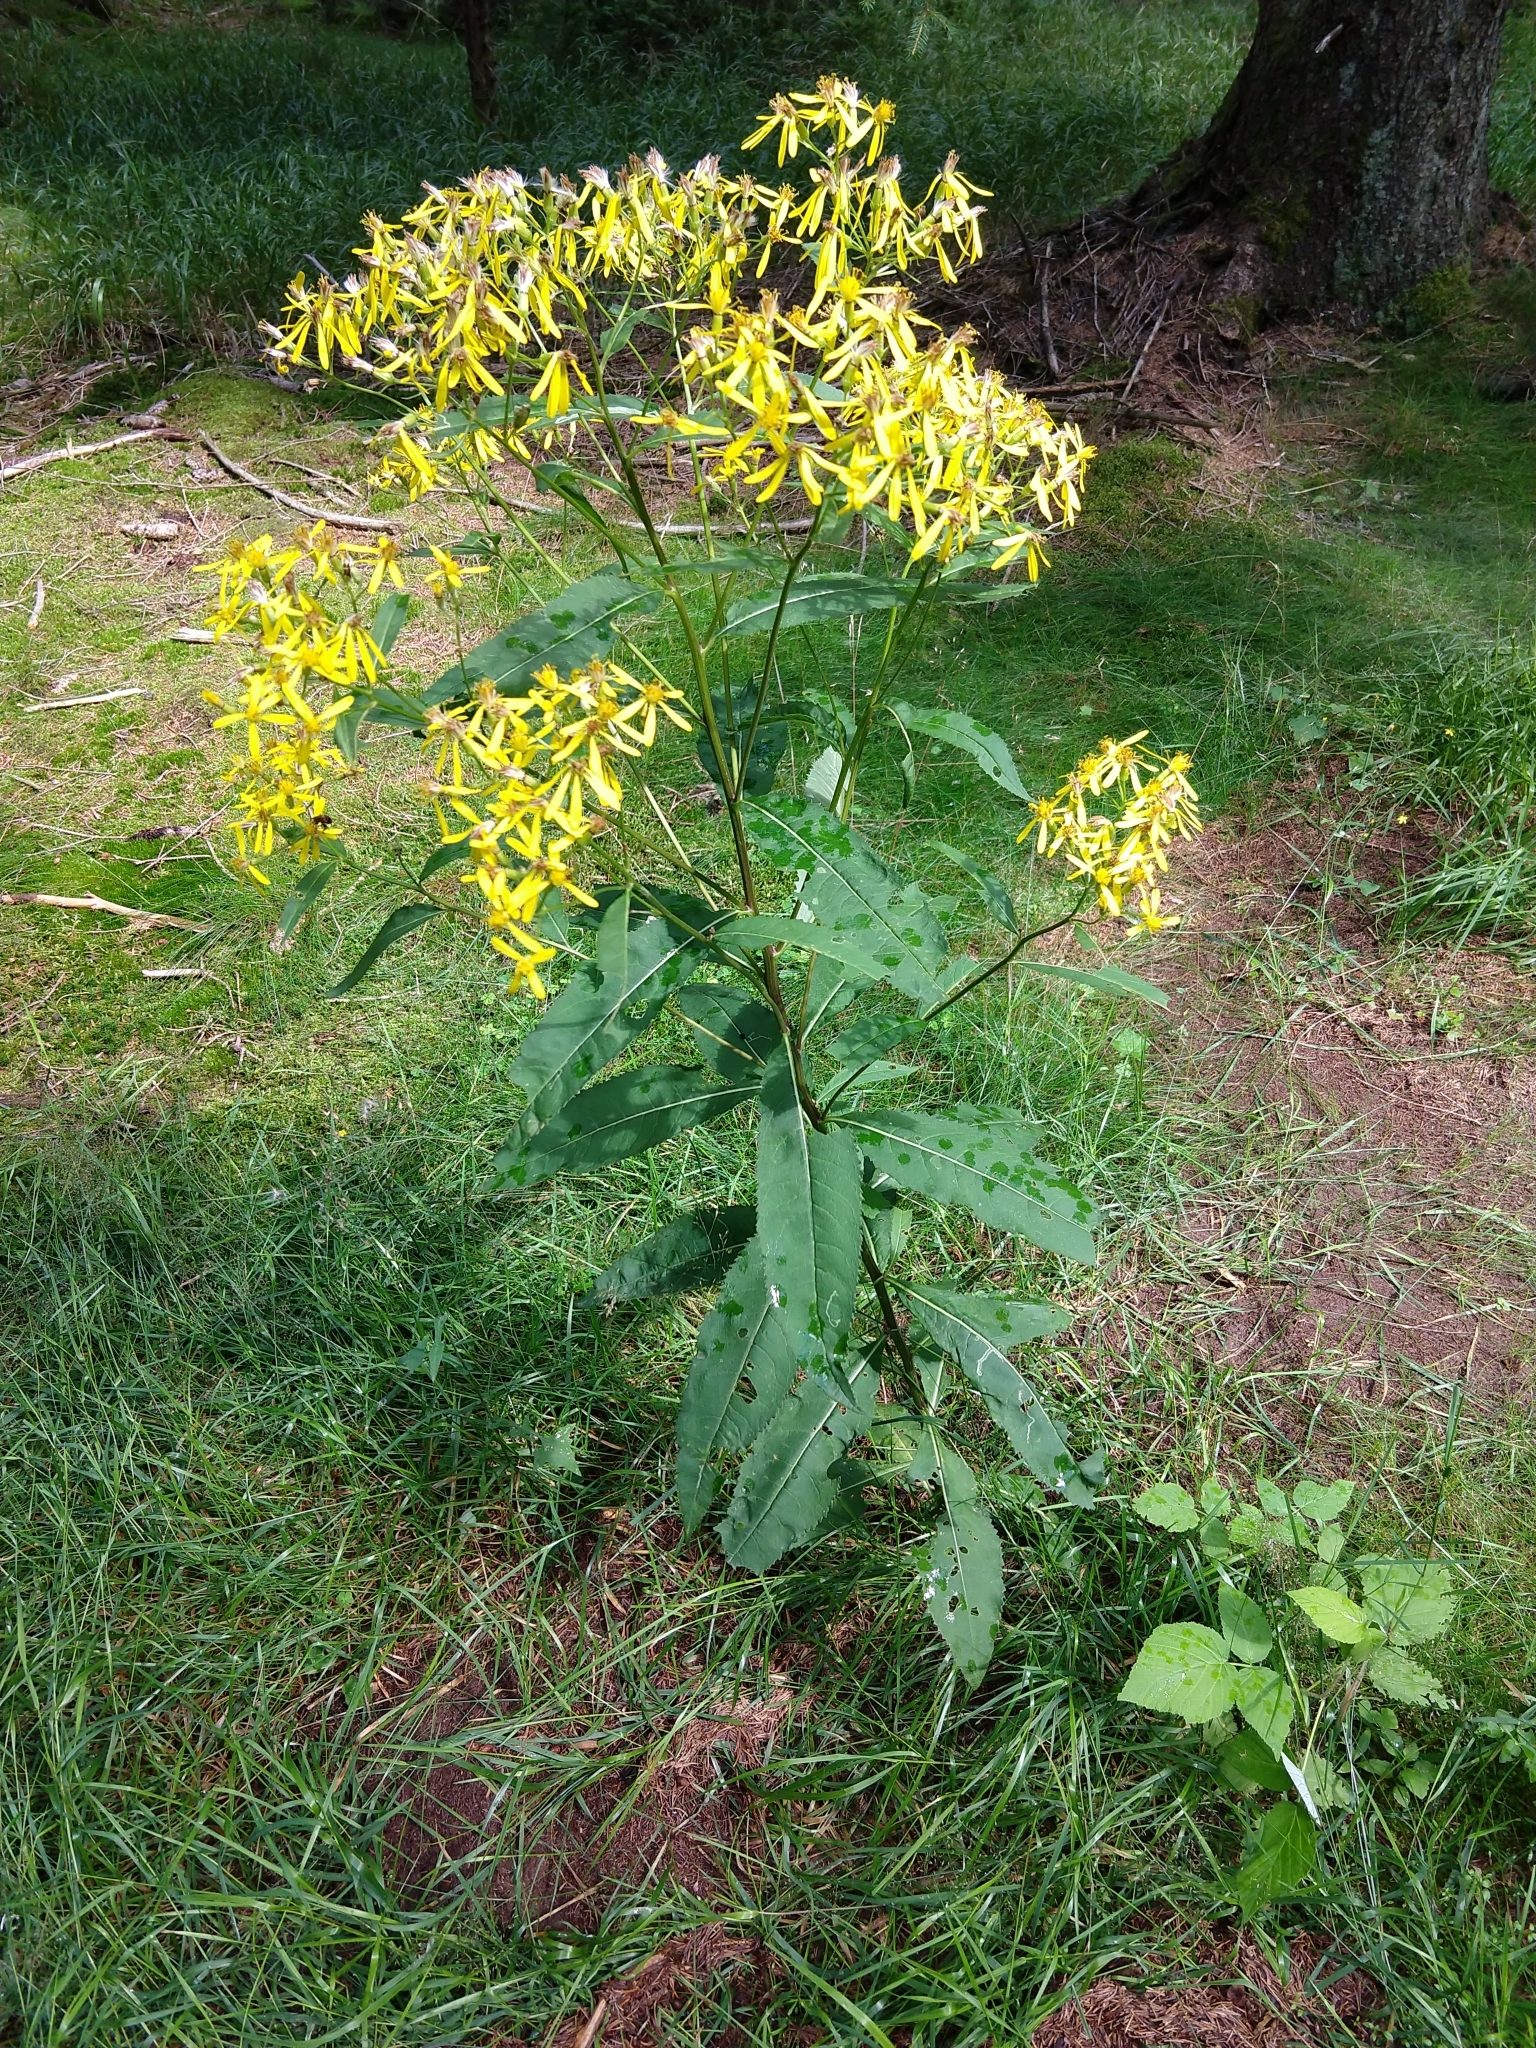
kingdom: Plantae
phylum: Tracheophyta
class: Magnoliopsida
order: Asterales
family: Asteraceae
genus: Senecio
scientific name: Senecio ovatus
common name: Wood ragwort
